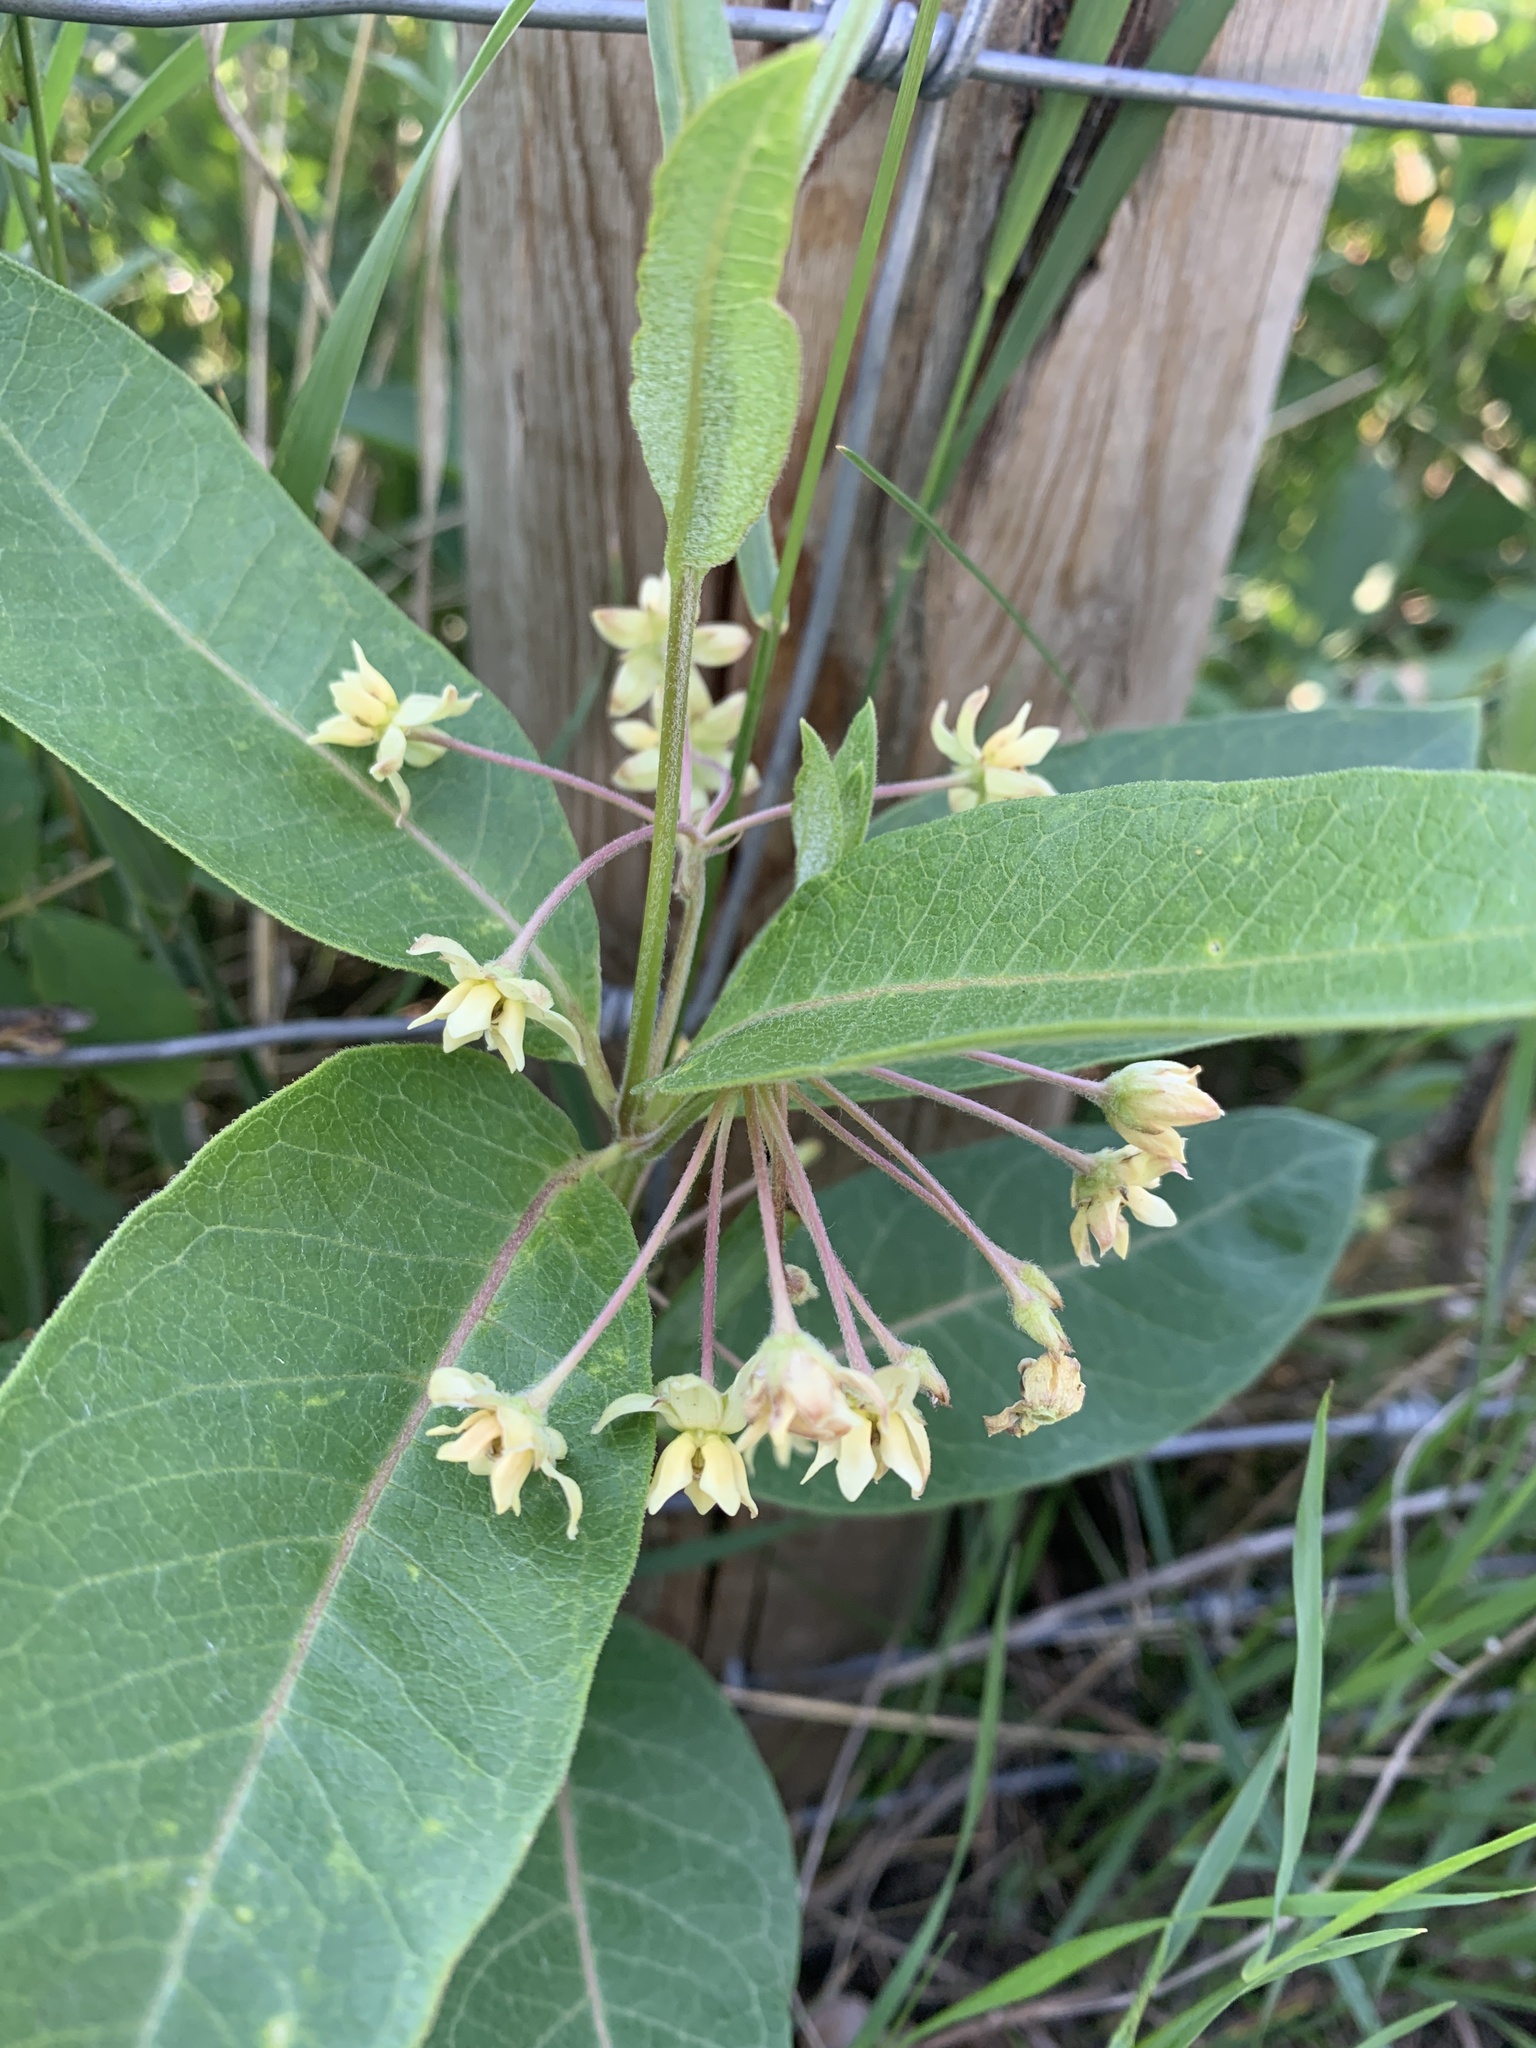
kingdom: Plantae
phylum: Tracheophyta
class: Magnoliopsida
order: Gentianales
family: Apocynaceae
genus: Asclepias
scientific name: Asclepias ovalifolia
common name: Dwarf milkweed
